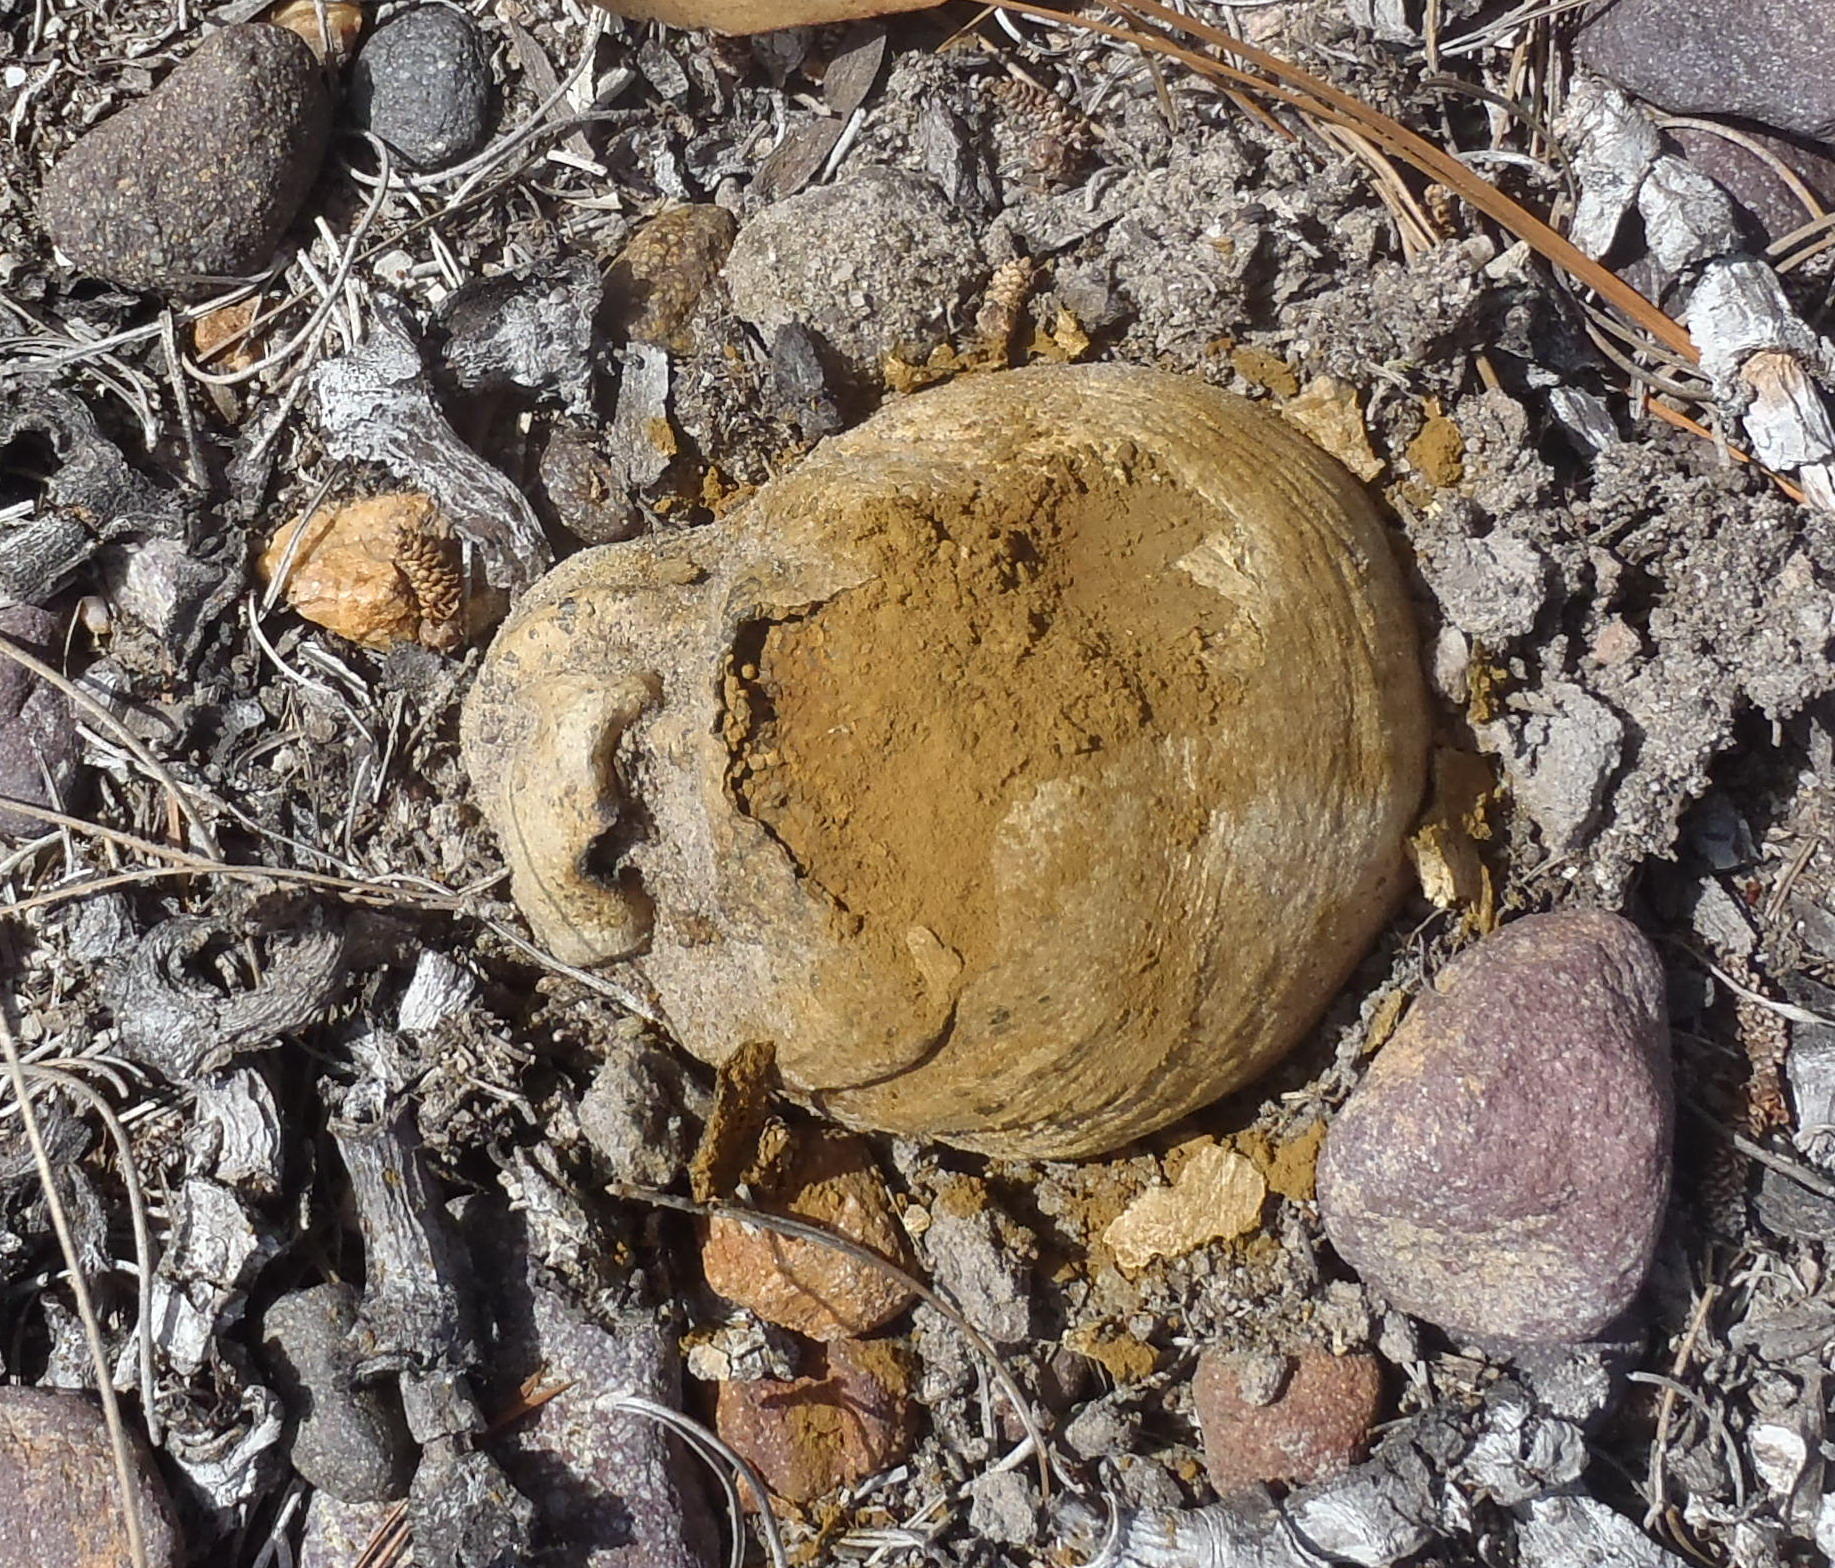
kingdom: Fungi
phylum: Basidiomycota
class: Agaricomycetes
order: Boletales
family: Sclerodermataceae
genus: Pisolithus
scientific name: Pisolithus arhizus
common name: Dyeball
